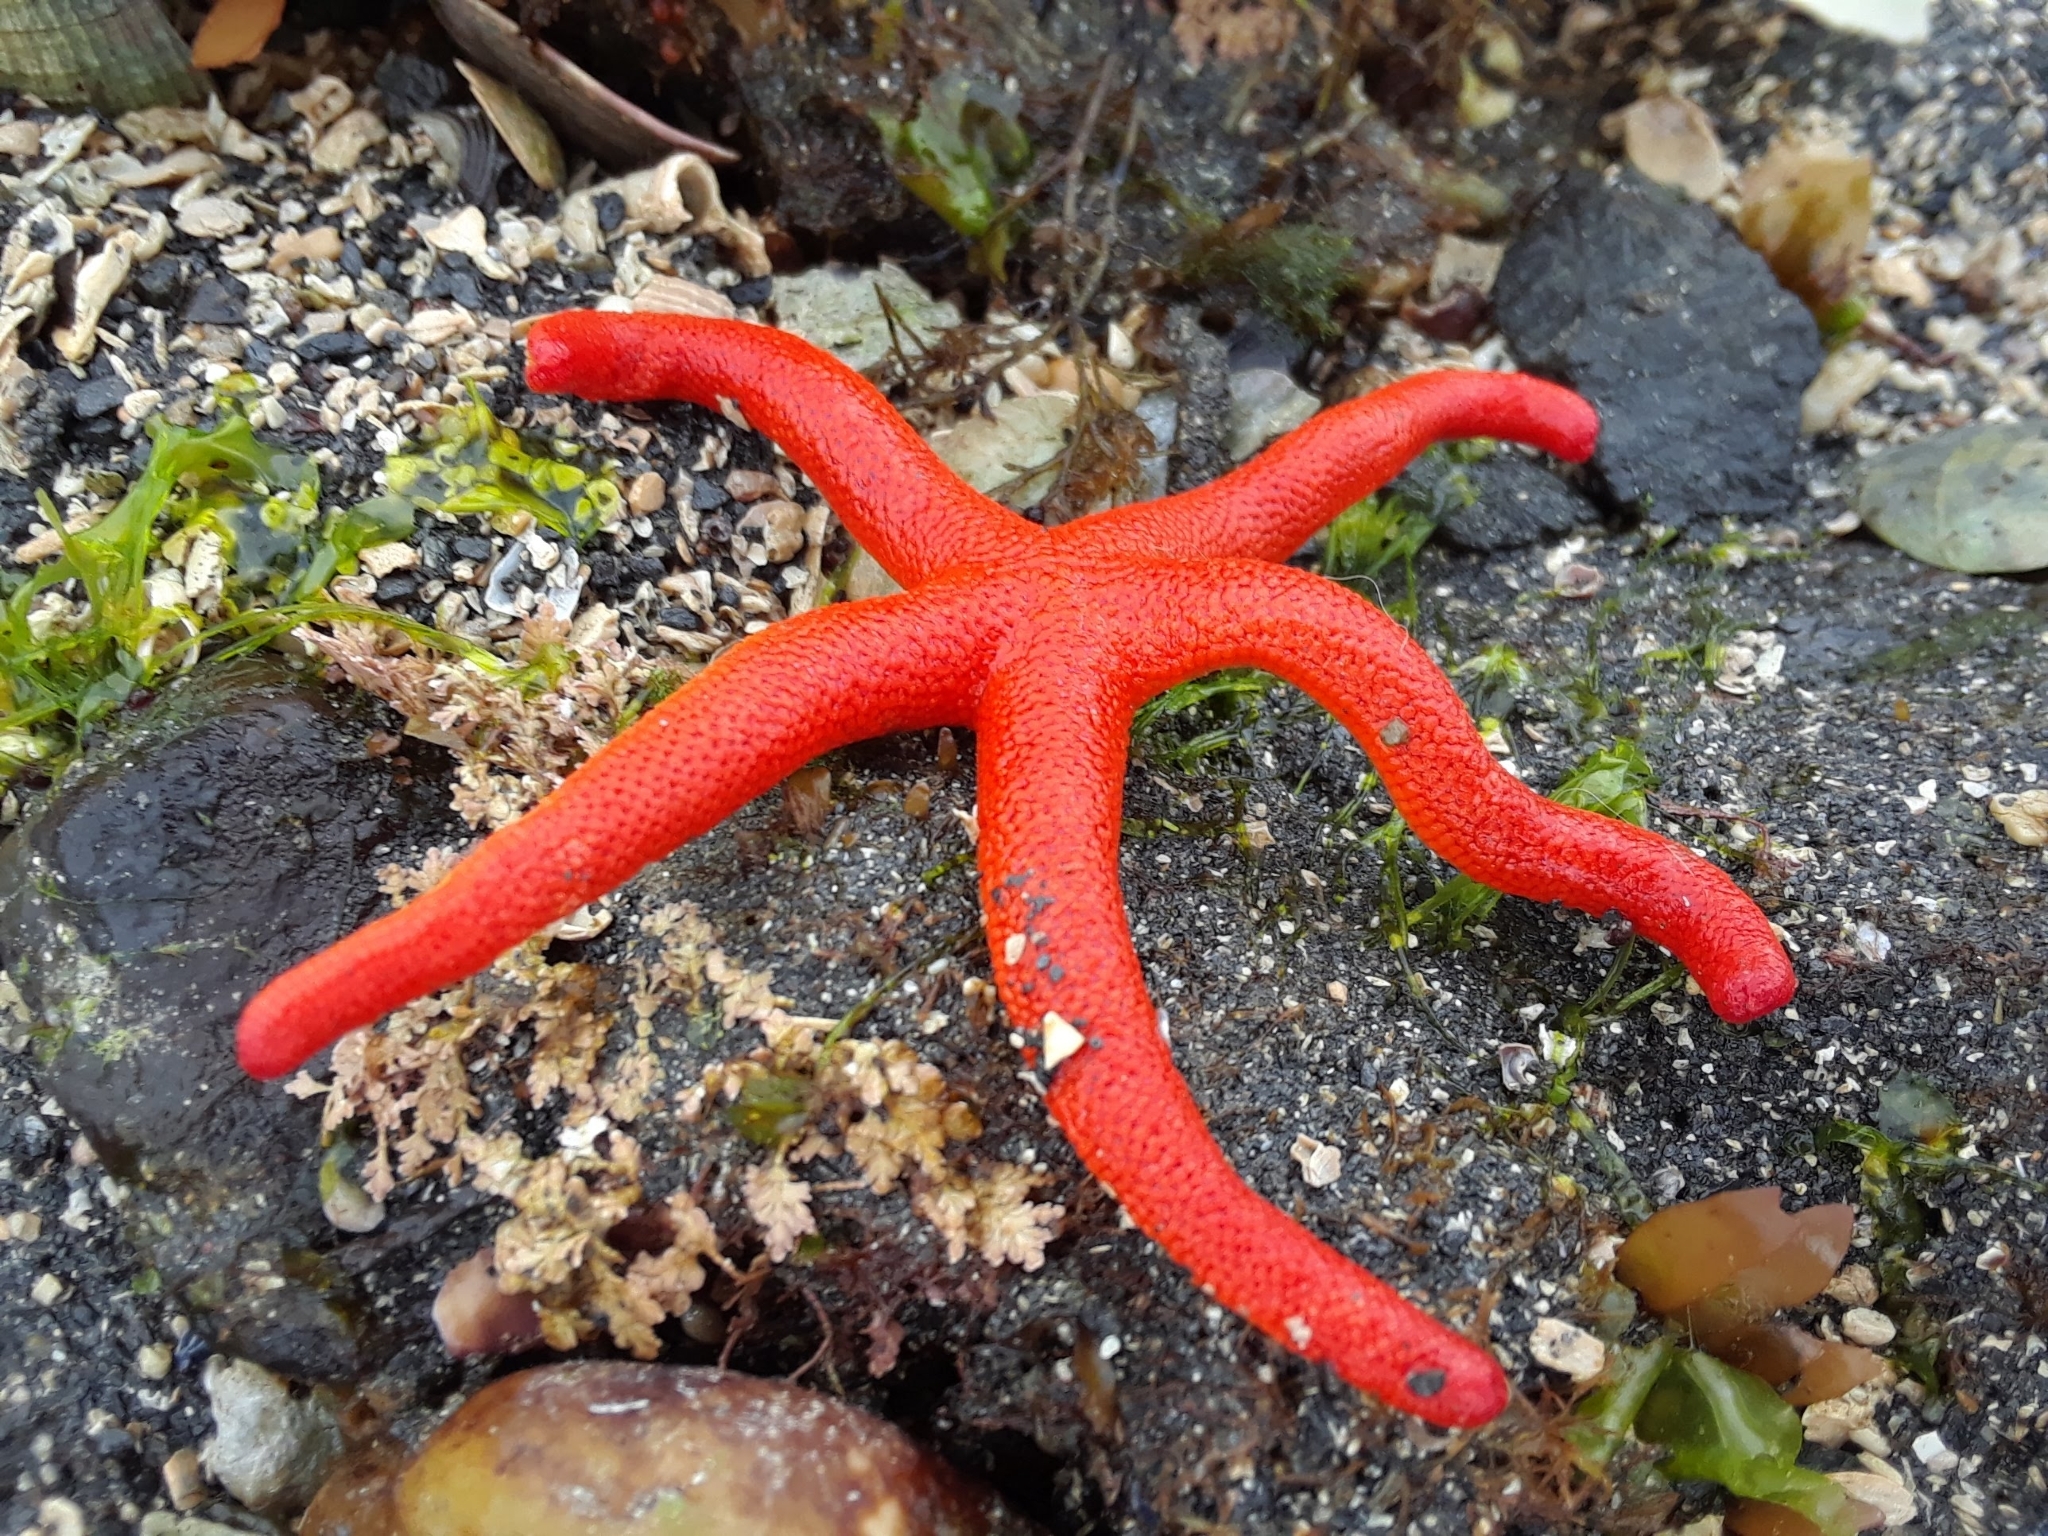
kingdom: Animalia
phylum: Echinodermata
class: Asteroidea
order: Spinulosida
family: Echinasteridae
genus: Henricia
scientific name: Henricia leviuscula
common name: Pacific blood star
